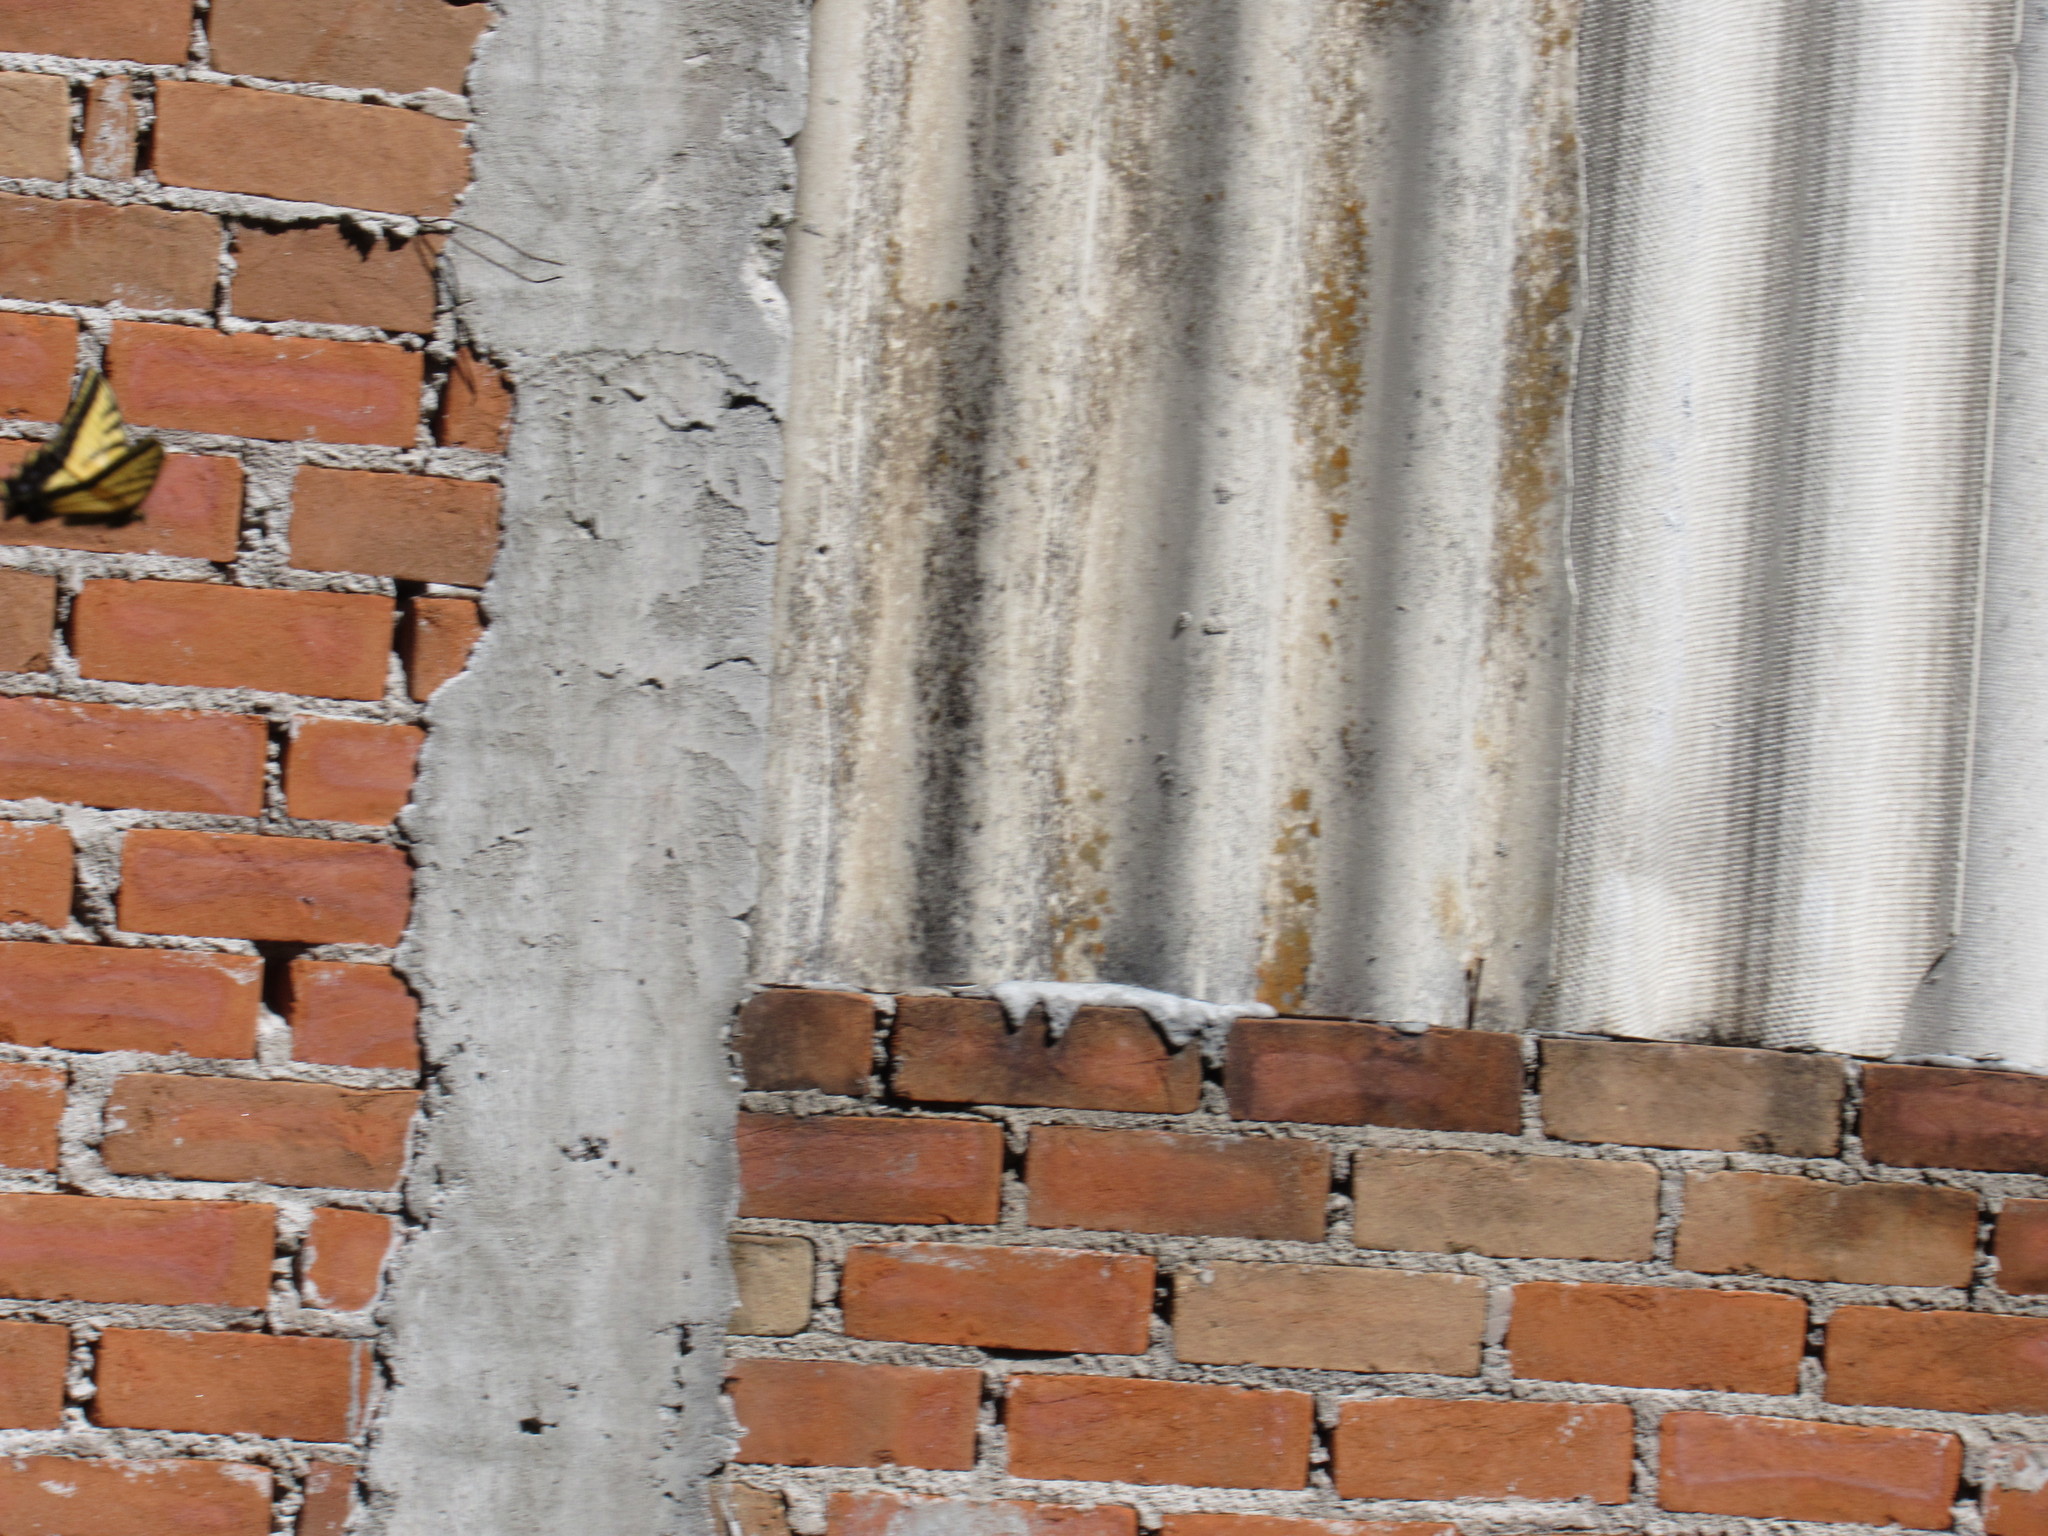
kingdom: Animalia
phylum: Arthropoda
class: Insecta
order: Lepidoptera
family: Papilionidae
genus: Papilio
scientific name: Papilio multicaudata
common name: Two-tailed tiger swallowtail
